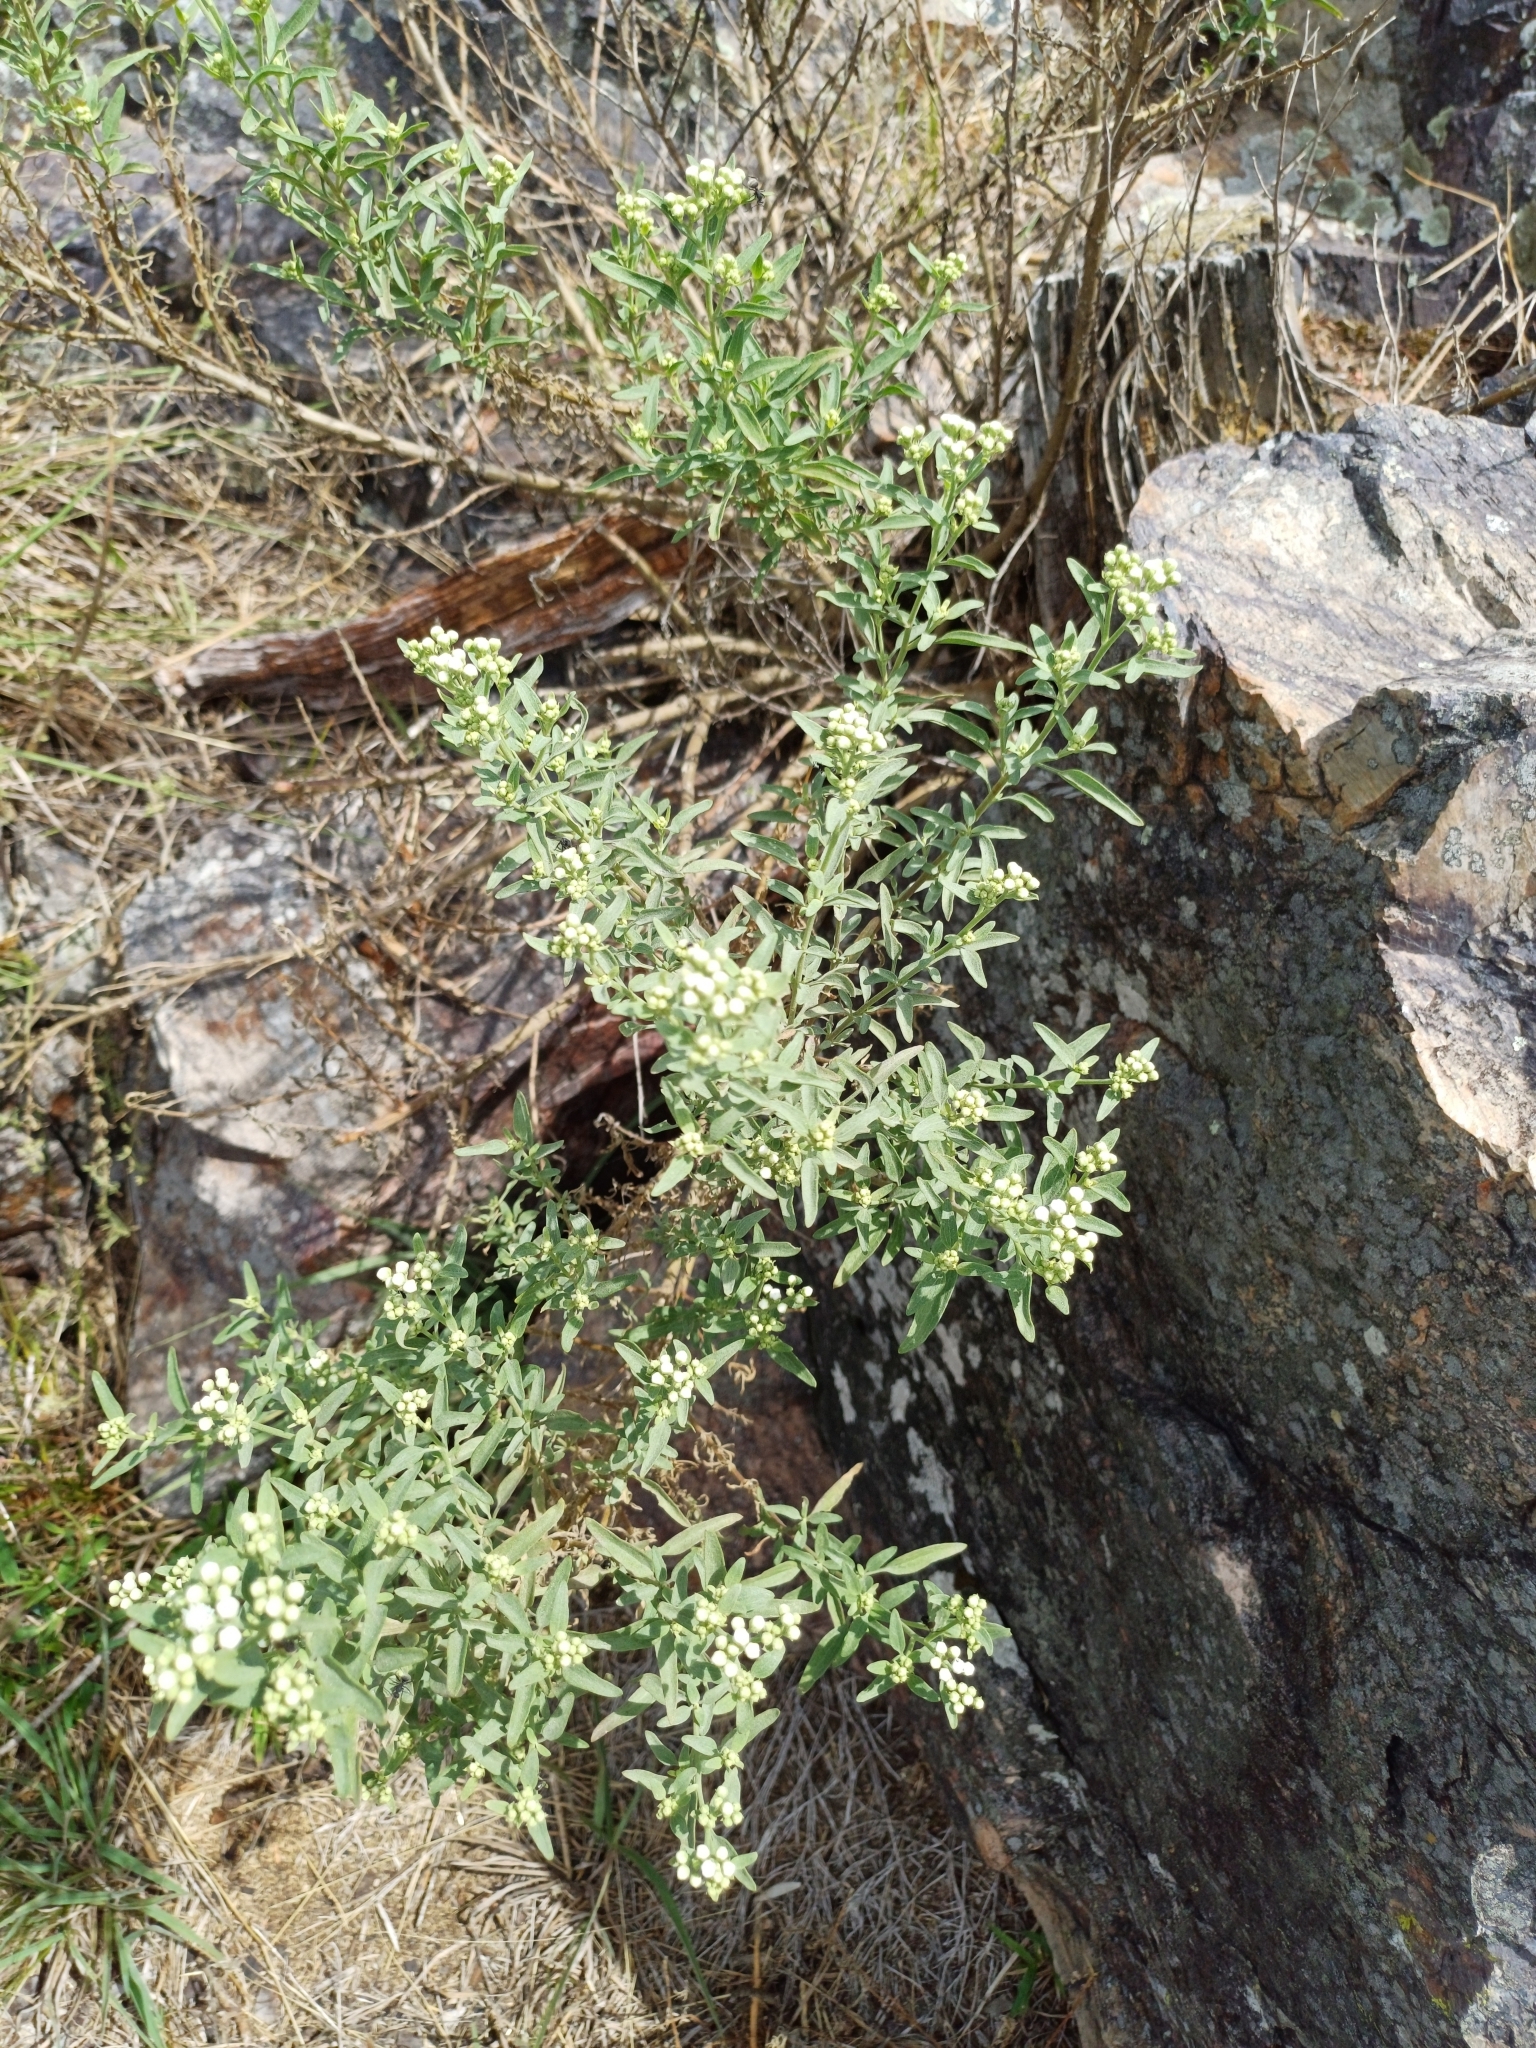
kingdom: Plantae
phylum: Tracheophyta
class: Magnoliopsida
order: Asterales
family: Asteraceae
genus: Hatschbachiella
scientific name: Hatschbachiella tweedieana
